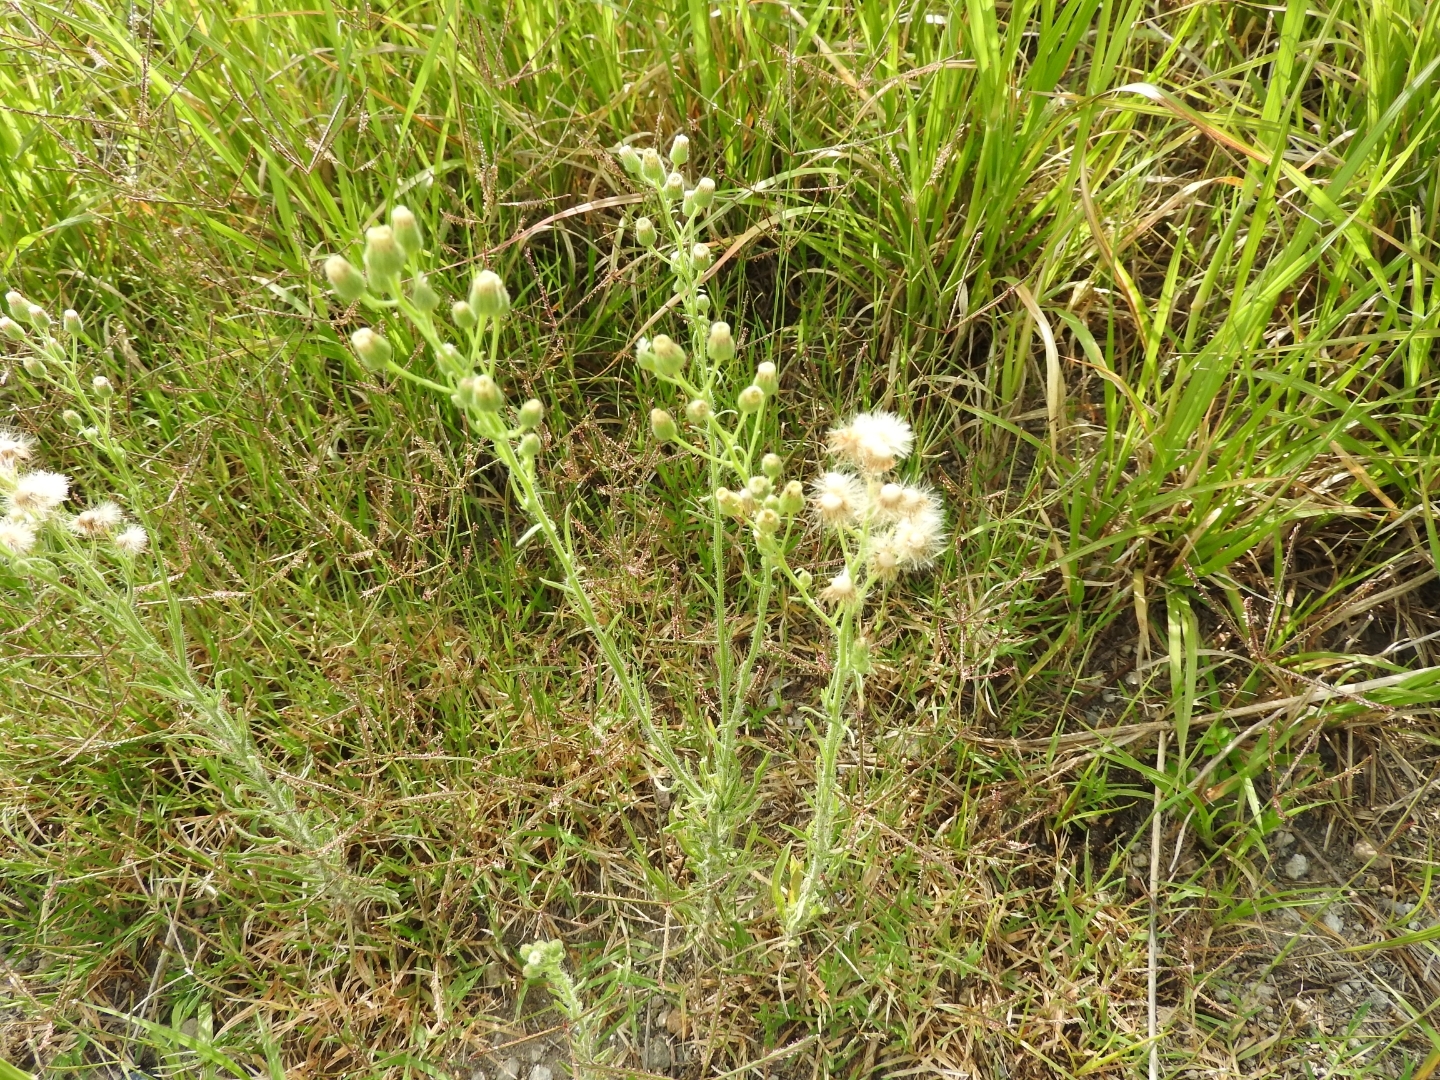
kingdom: Plantae
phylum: Tracheophyta
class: Magnoliopsida
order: Asterales
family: Asteraceae
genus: Erigeron
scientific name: Erigeron bonariensis
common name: Argentine fleabane
